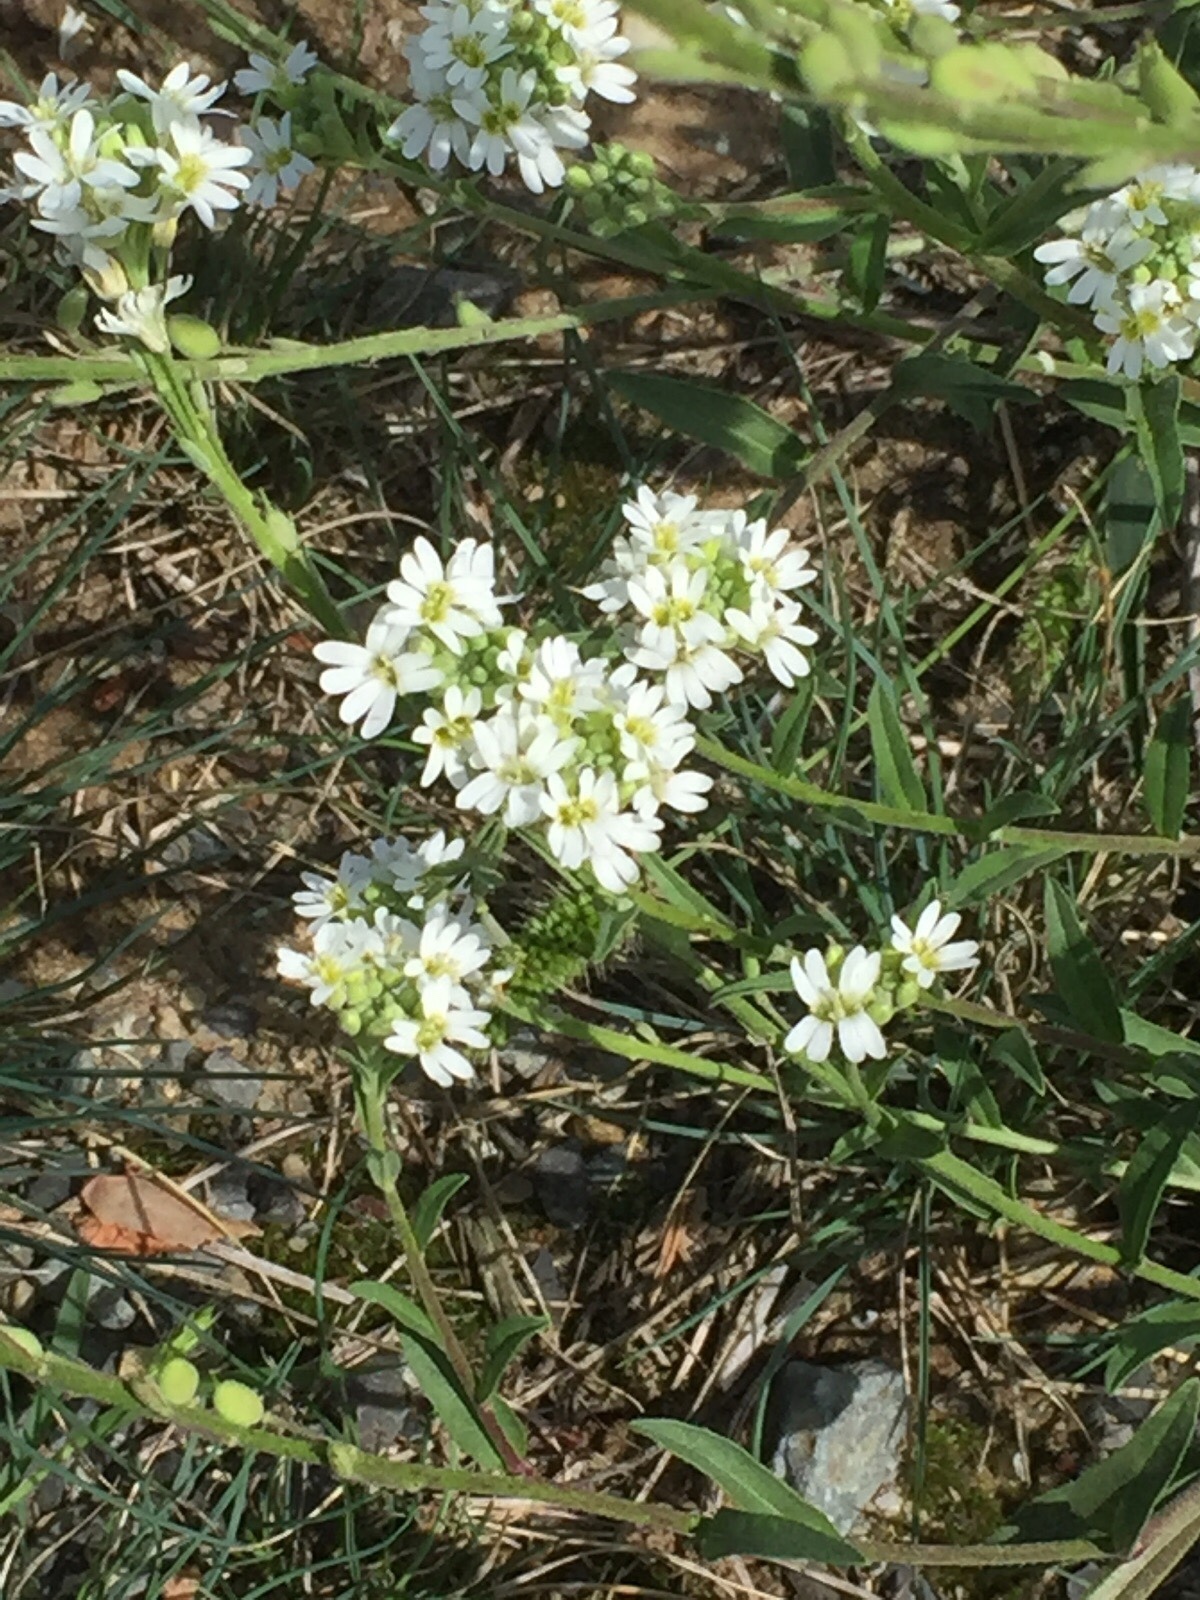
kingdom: Plantae
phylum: Tracheophyta
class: Magnoliopsida
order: Brassicales
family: Brassicaceae
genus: Berteroa
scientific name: Berteroa incana
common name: Hoary alison
